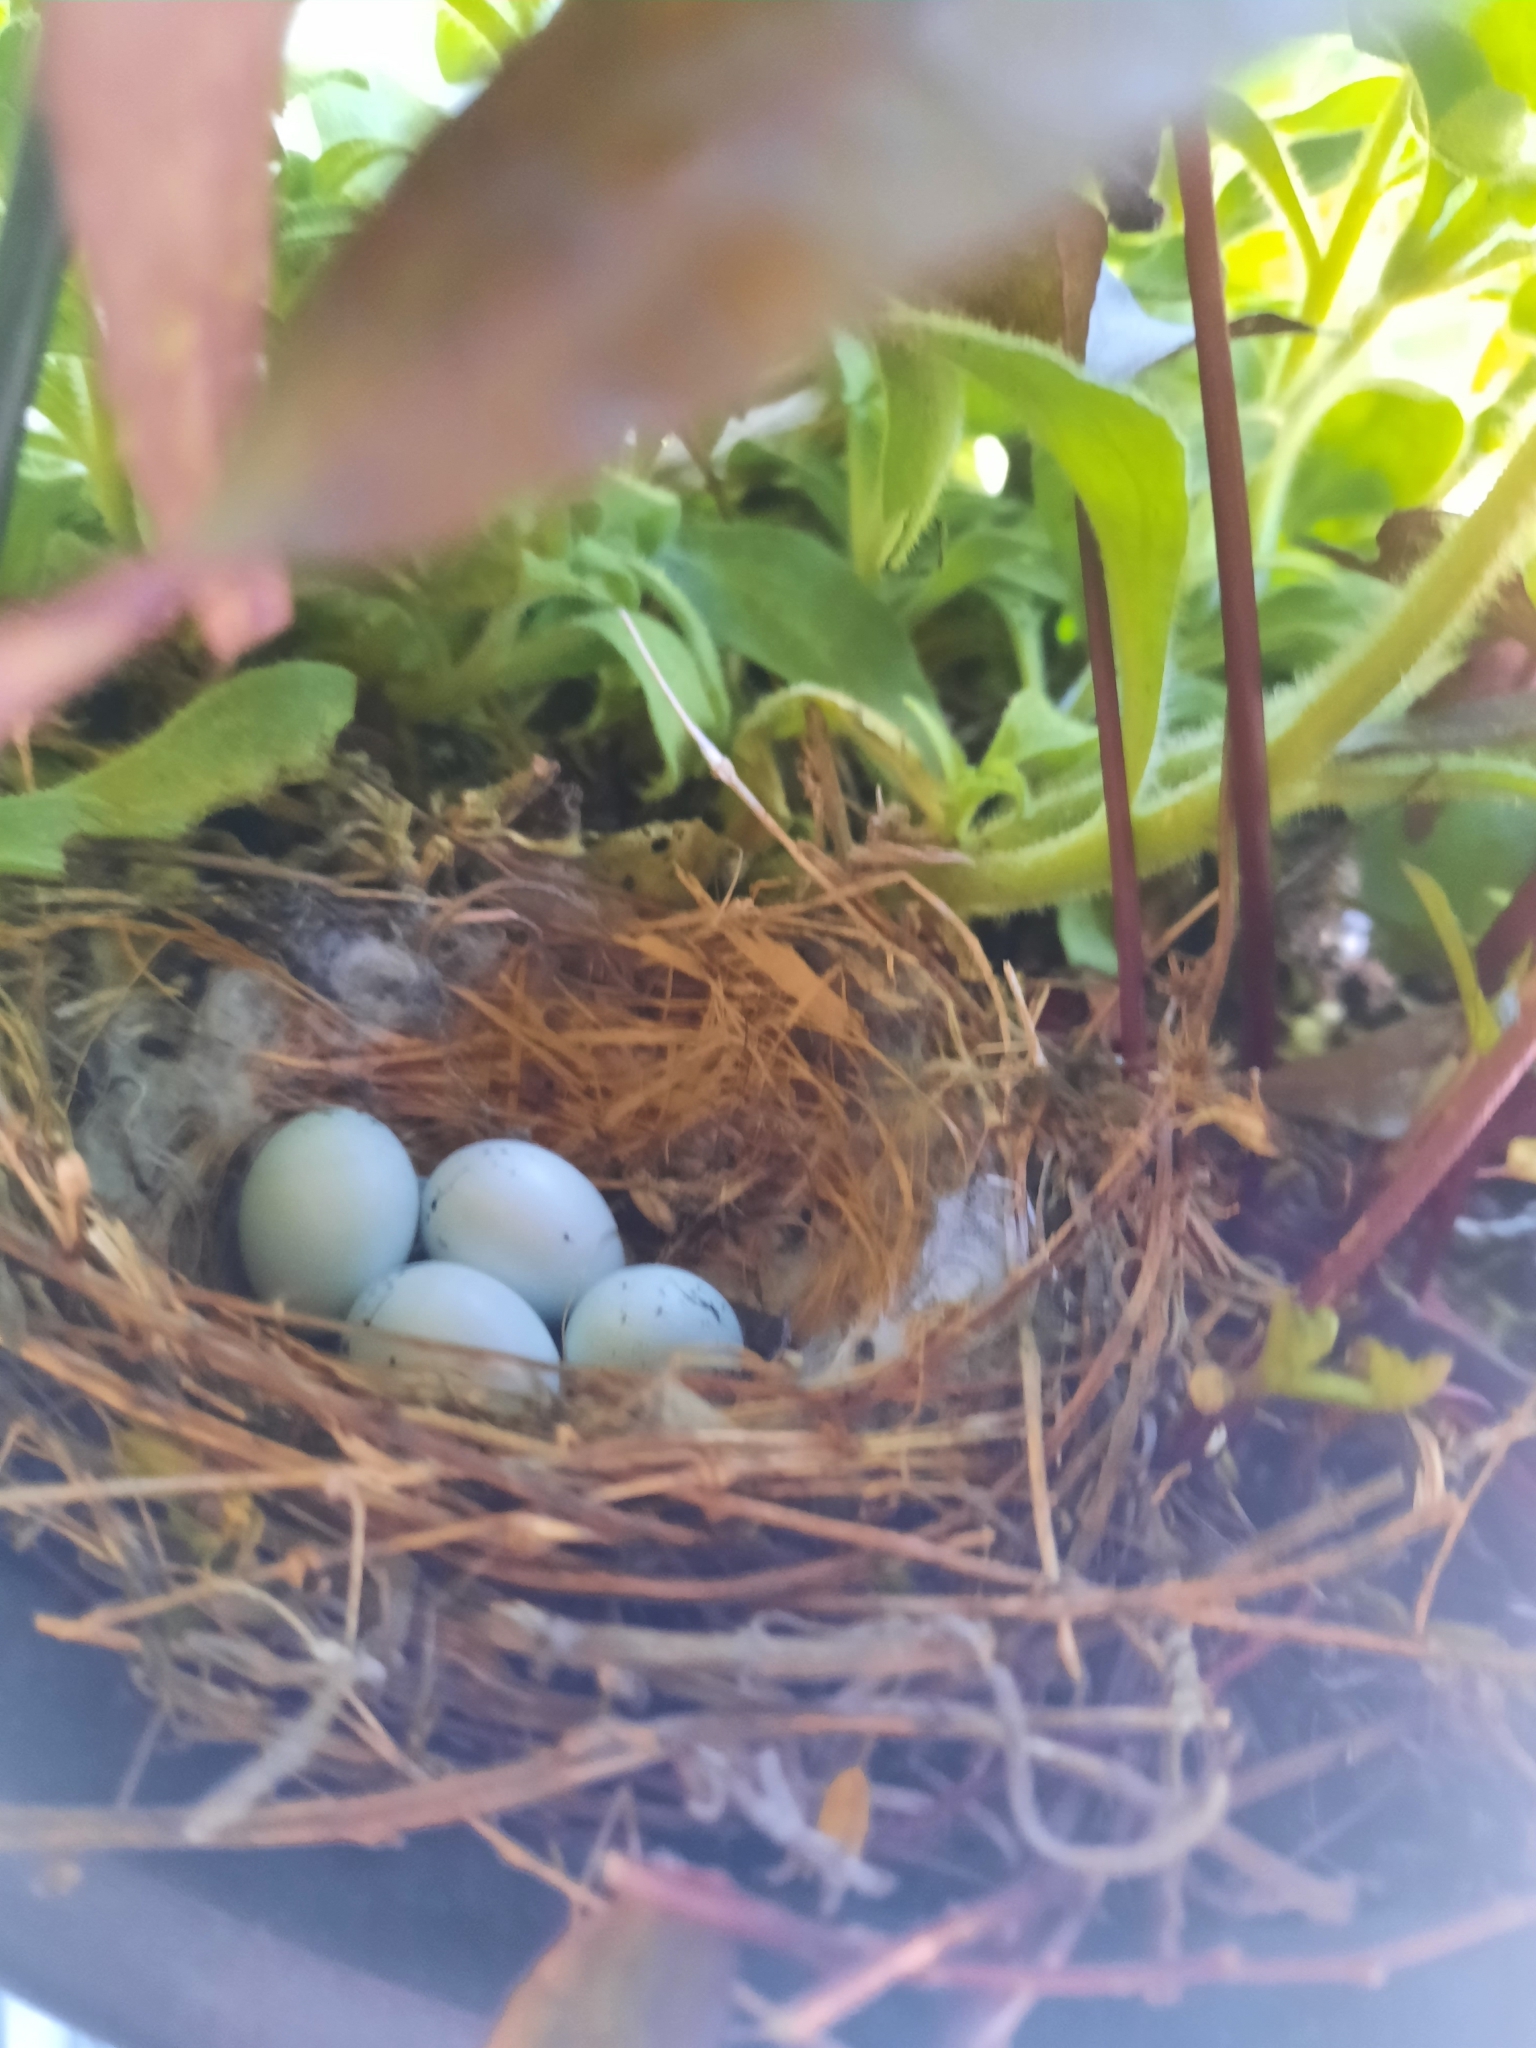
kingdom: Animalia
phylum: Chordata
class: Aves
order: Passeriformes
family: Fringillidae
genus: Haemorhous
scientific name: Haemorhous mexicanus
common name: House finch
